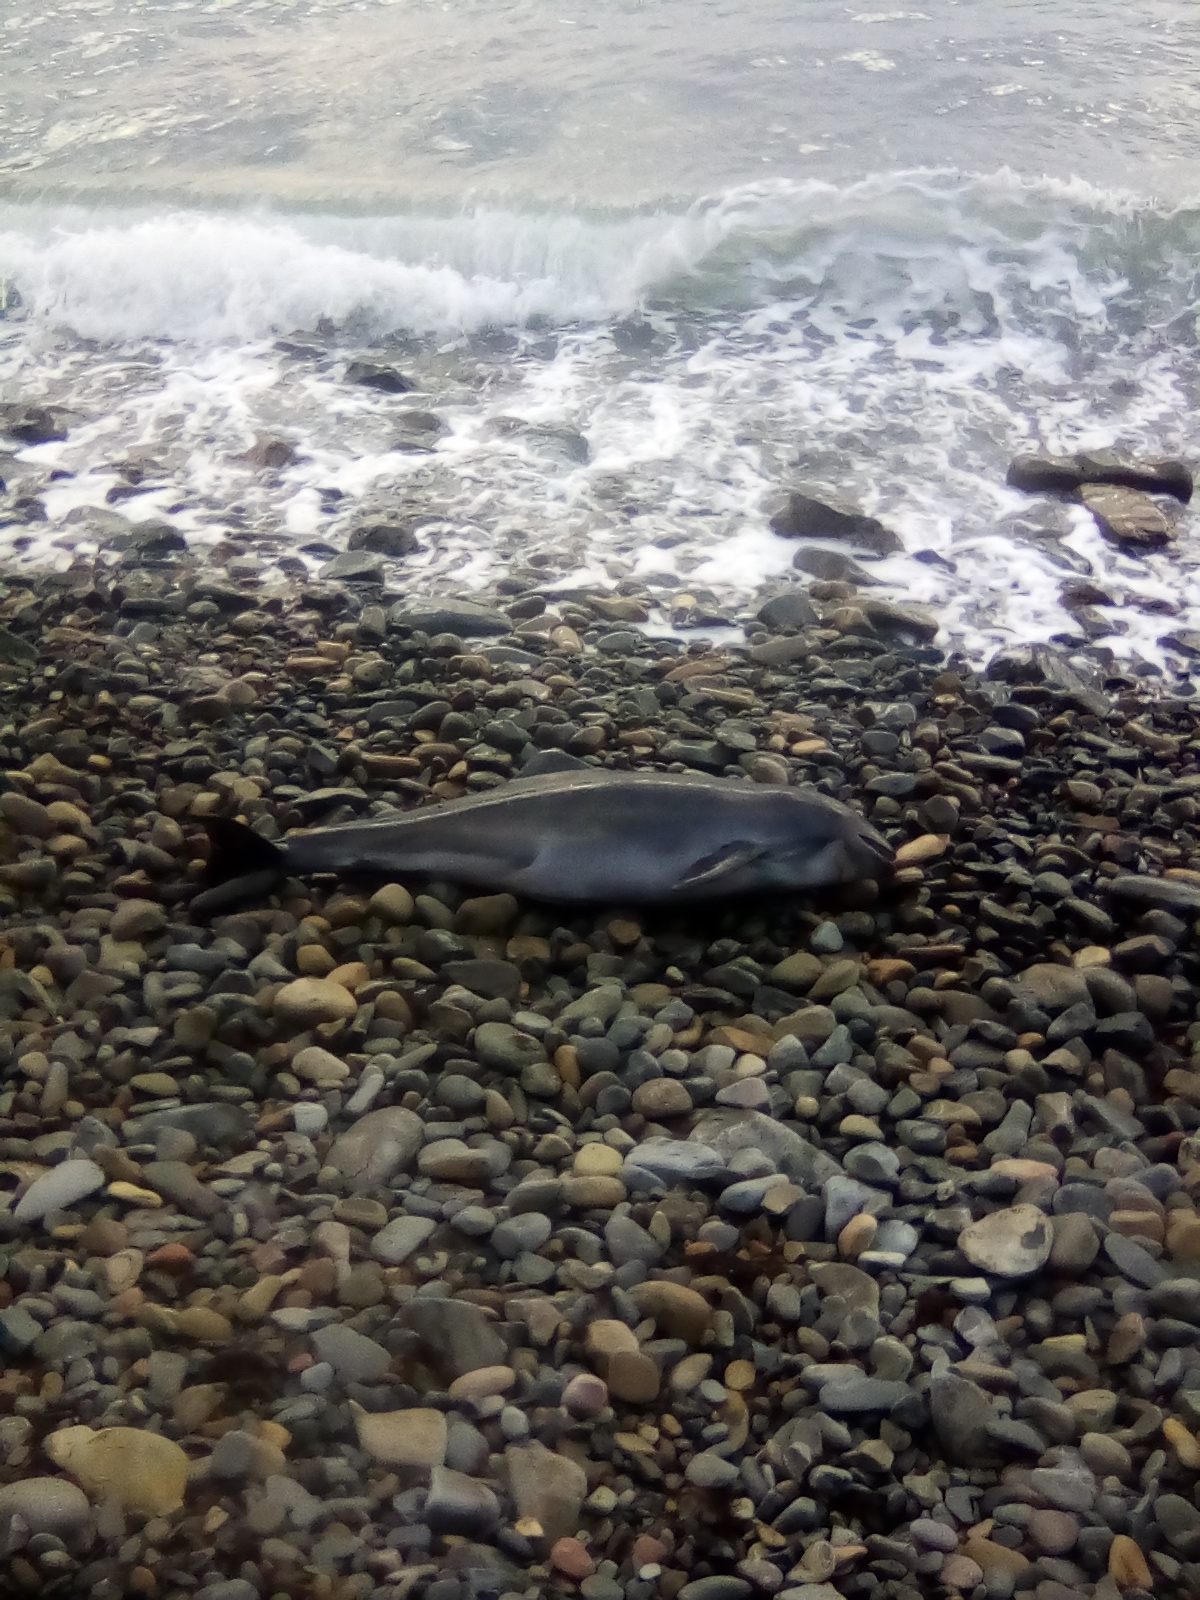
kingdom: Animalia
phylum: Chordata
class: Mammalia
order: Cetacea
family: Phocoenidae
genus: Phocoena
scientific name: Phocoena phocoena
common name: Harbor porpoise
